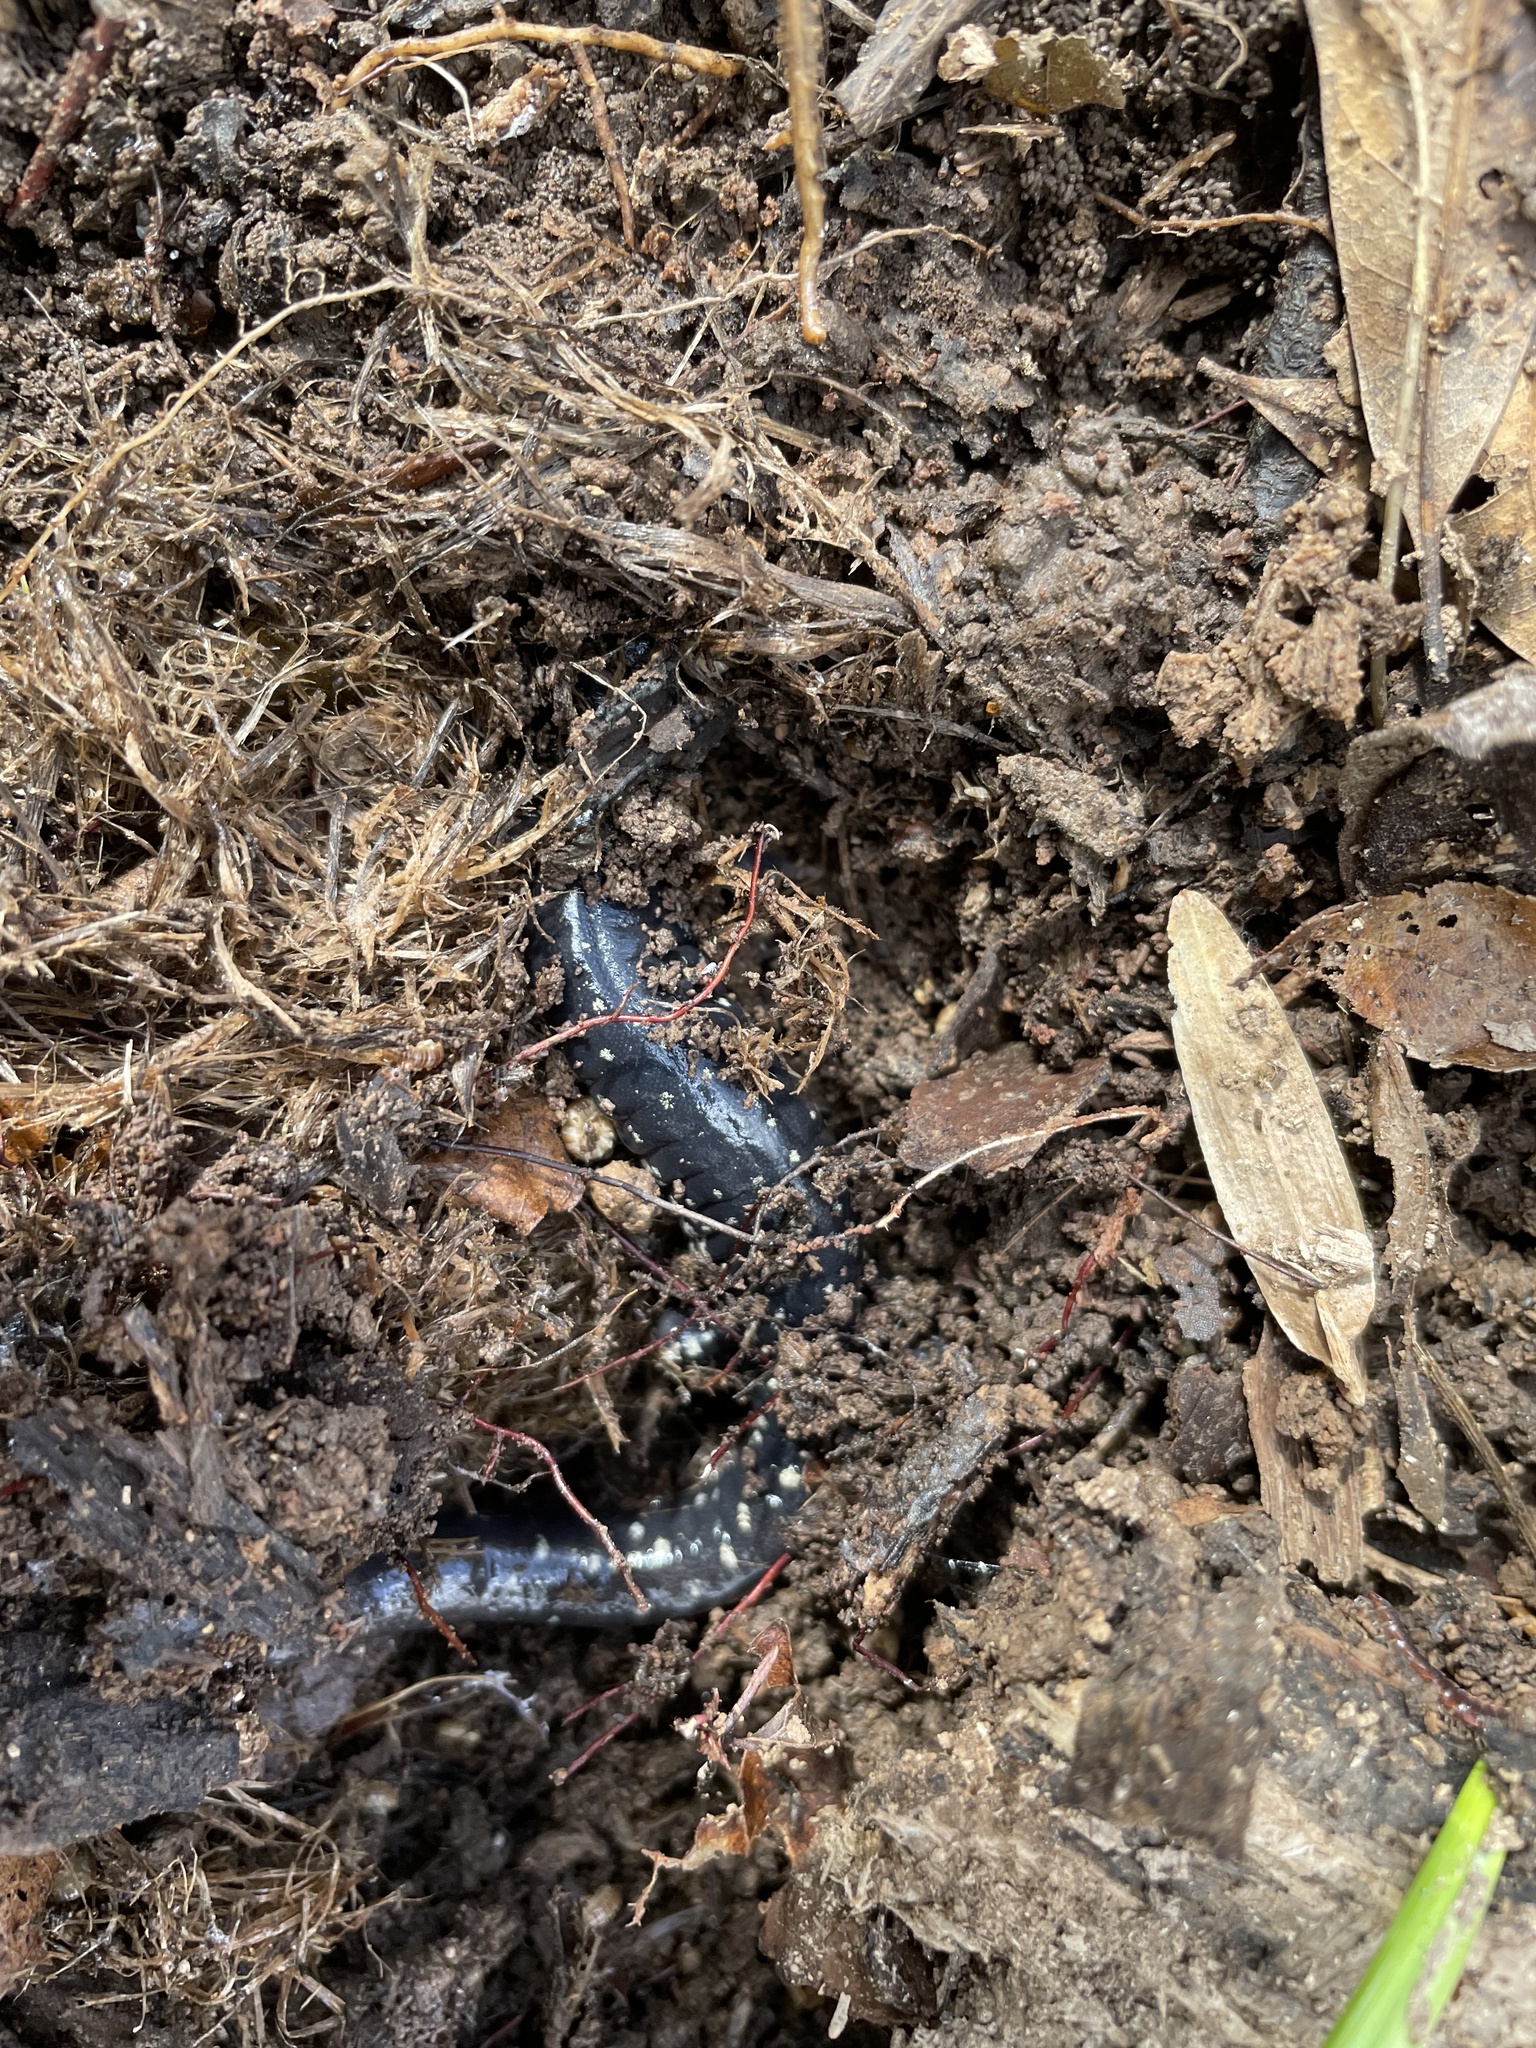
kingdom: Animalia
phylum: Chordata
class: Amphibia
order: Caudata
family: Plethodontidae
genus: Plethodon
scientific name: Plethodon glutinosus
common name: Northern slimy salamander
